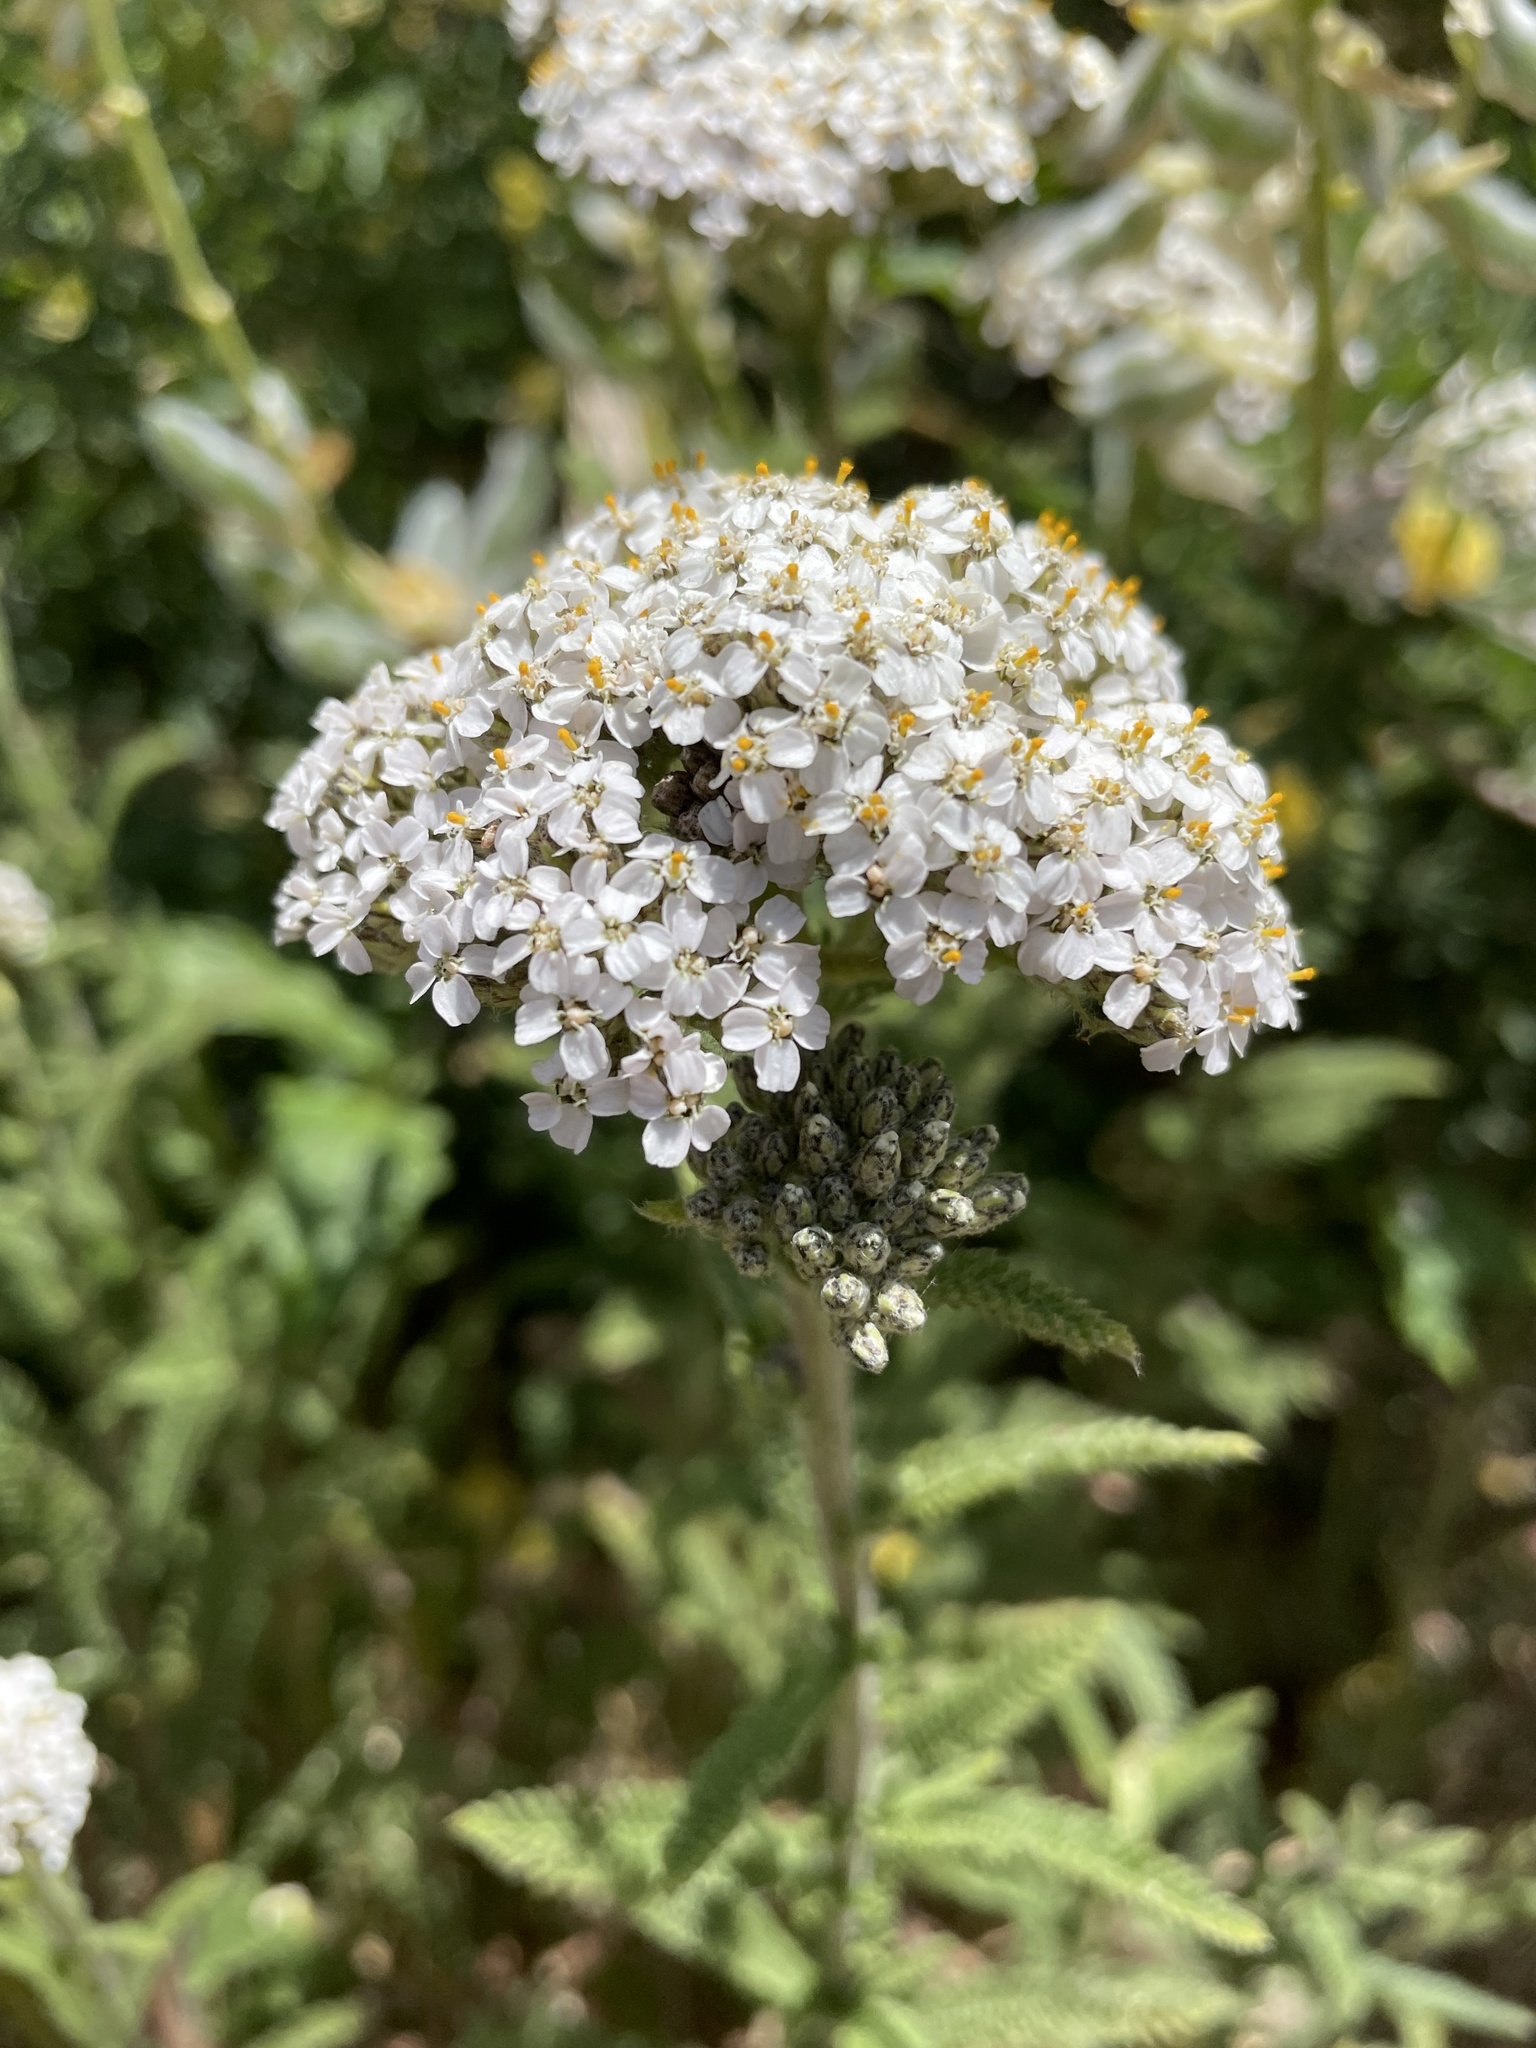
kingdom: Plantae
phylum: Tracheophyta
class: Magnoliopsida
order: Asterales
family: Asteraceae
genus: Achillea
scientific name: Achillea millefolium
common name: Yarrow
